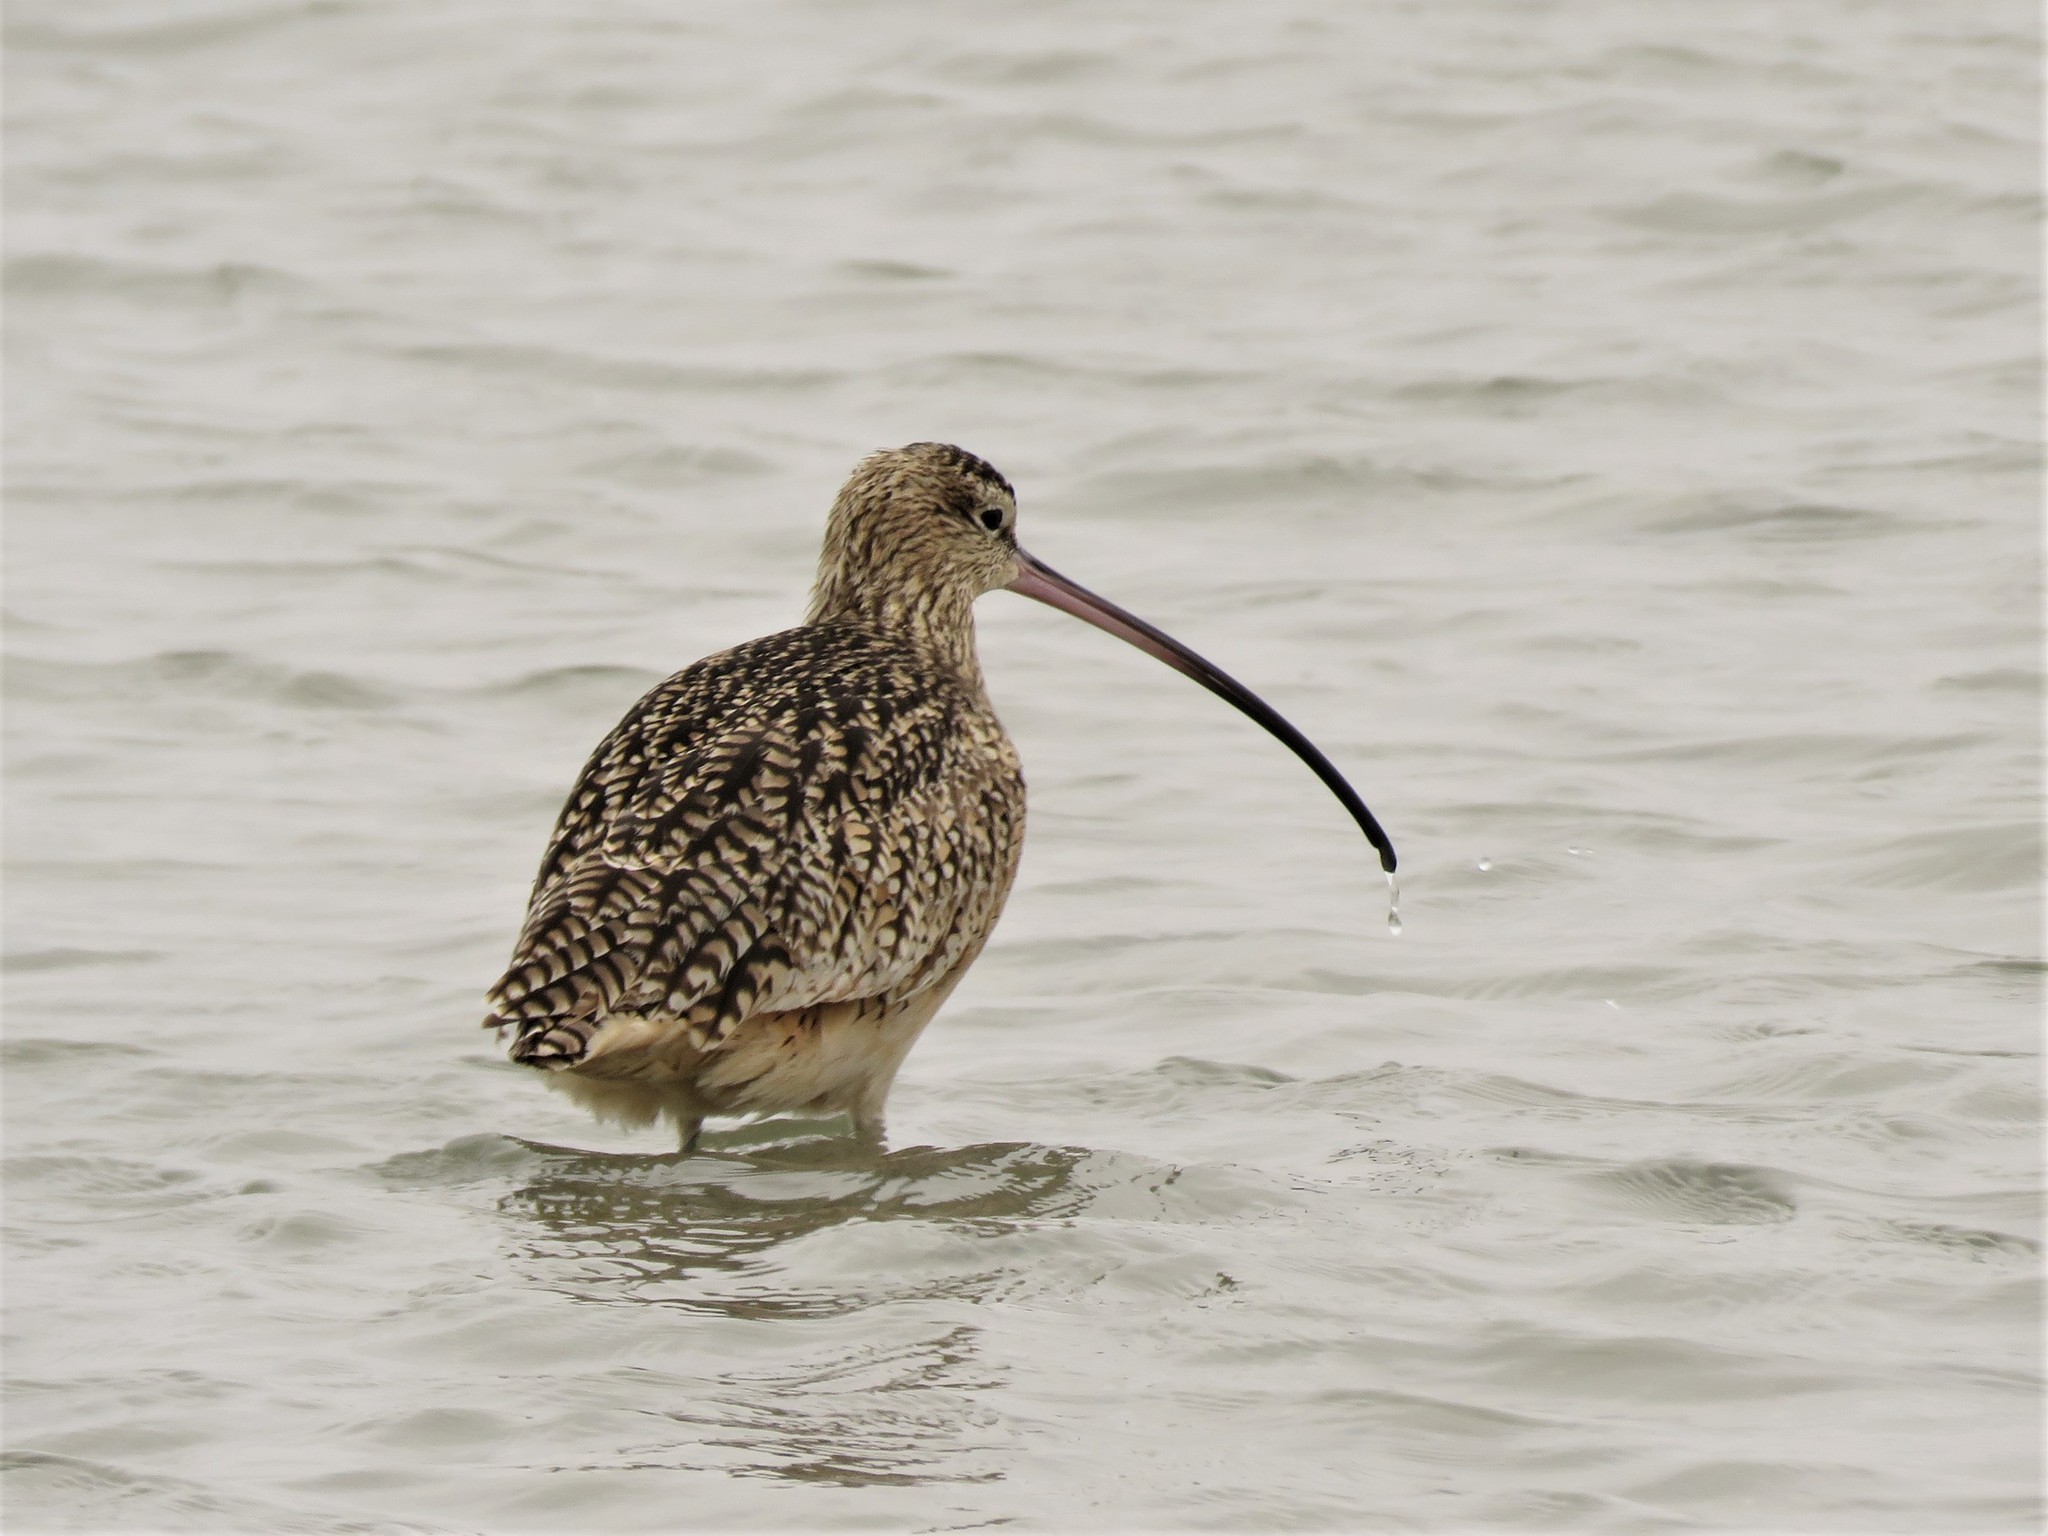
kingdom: Animalia
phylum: Chordata
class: Aves
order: Charadriiformes
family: Scolopacidae
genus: Numenius
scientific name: Numenius americanus
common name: Long-billed curlew
